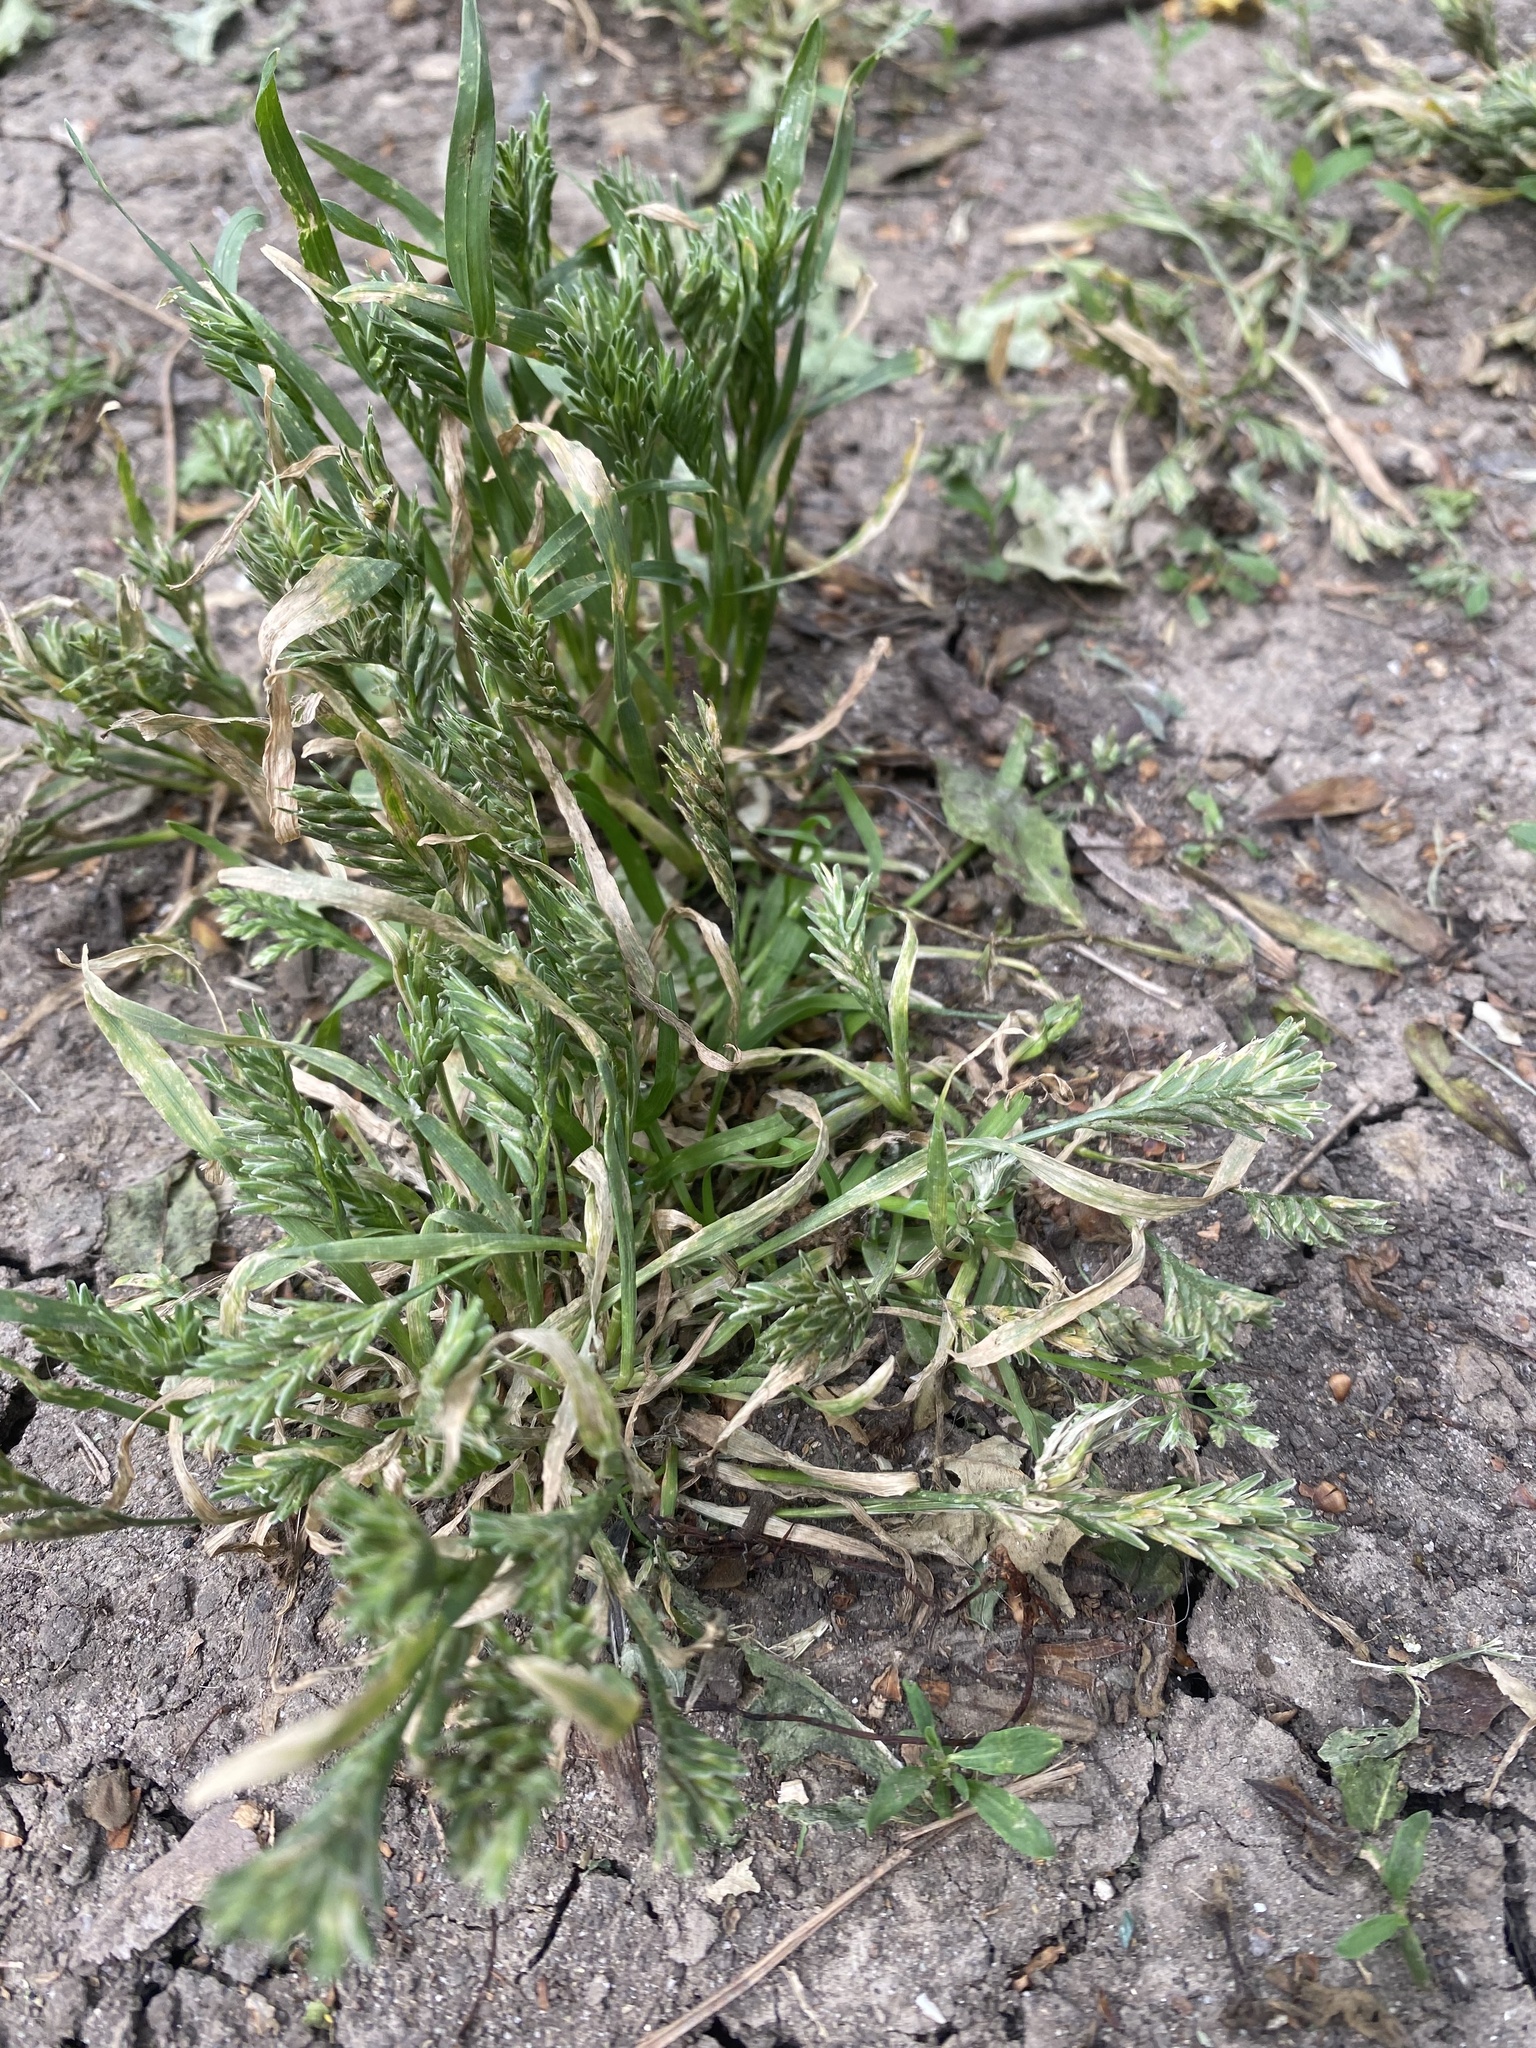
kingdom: Plantae
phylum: Tracheophyta
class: Liliopsida
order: Poales
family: Poaceae
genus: Sclerochloa
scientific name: Sclerochloa dura
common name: Common hardgrass
